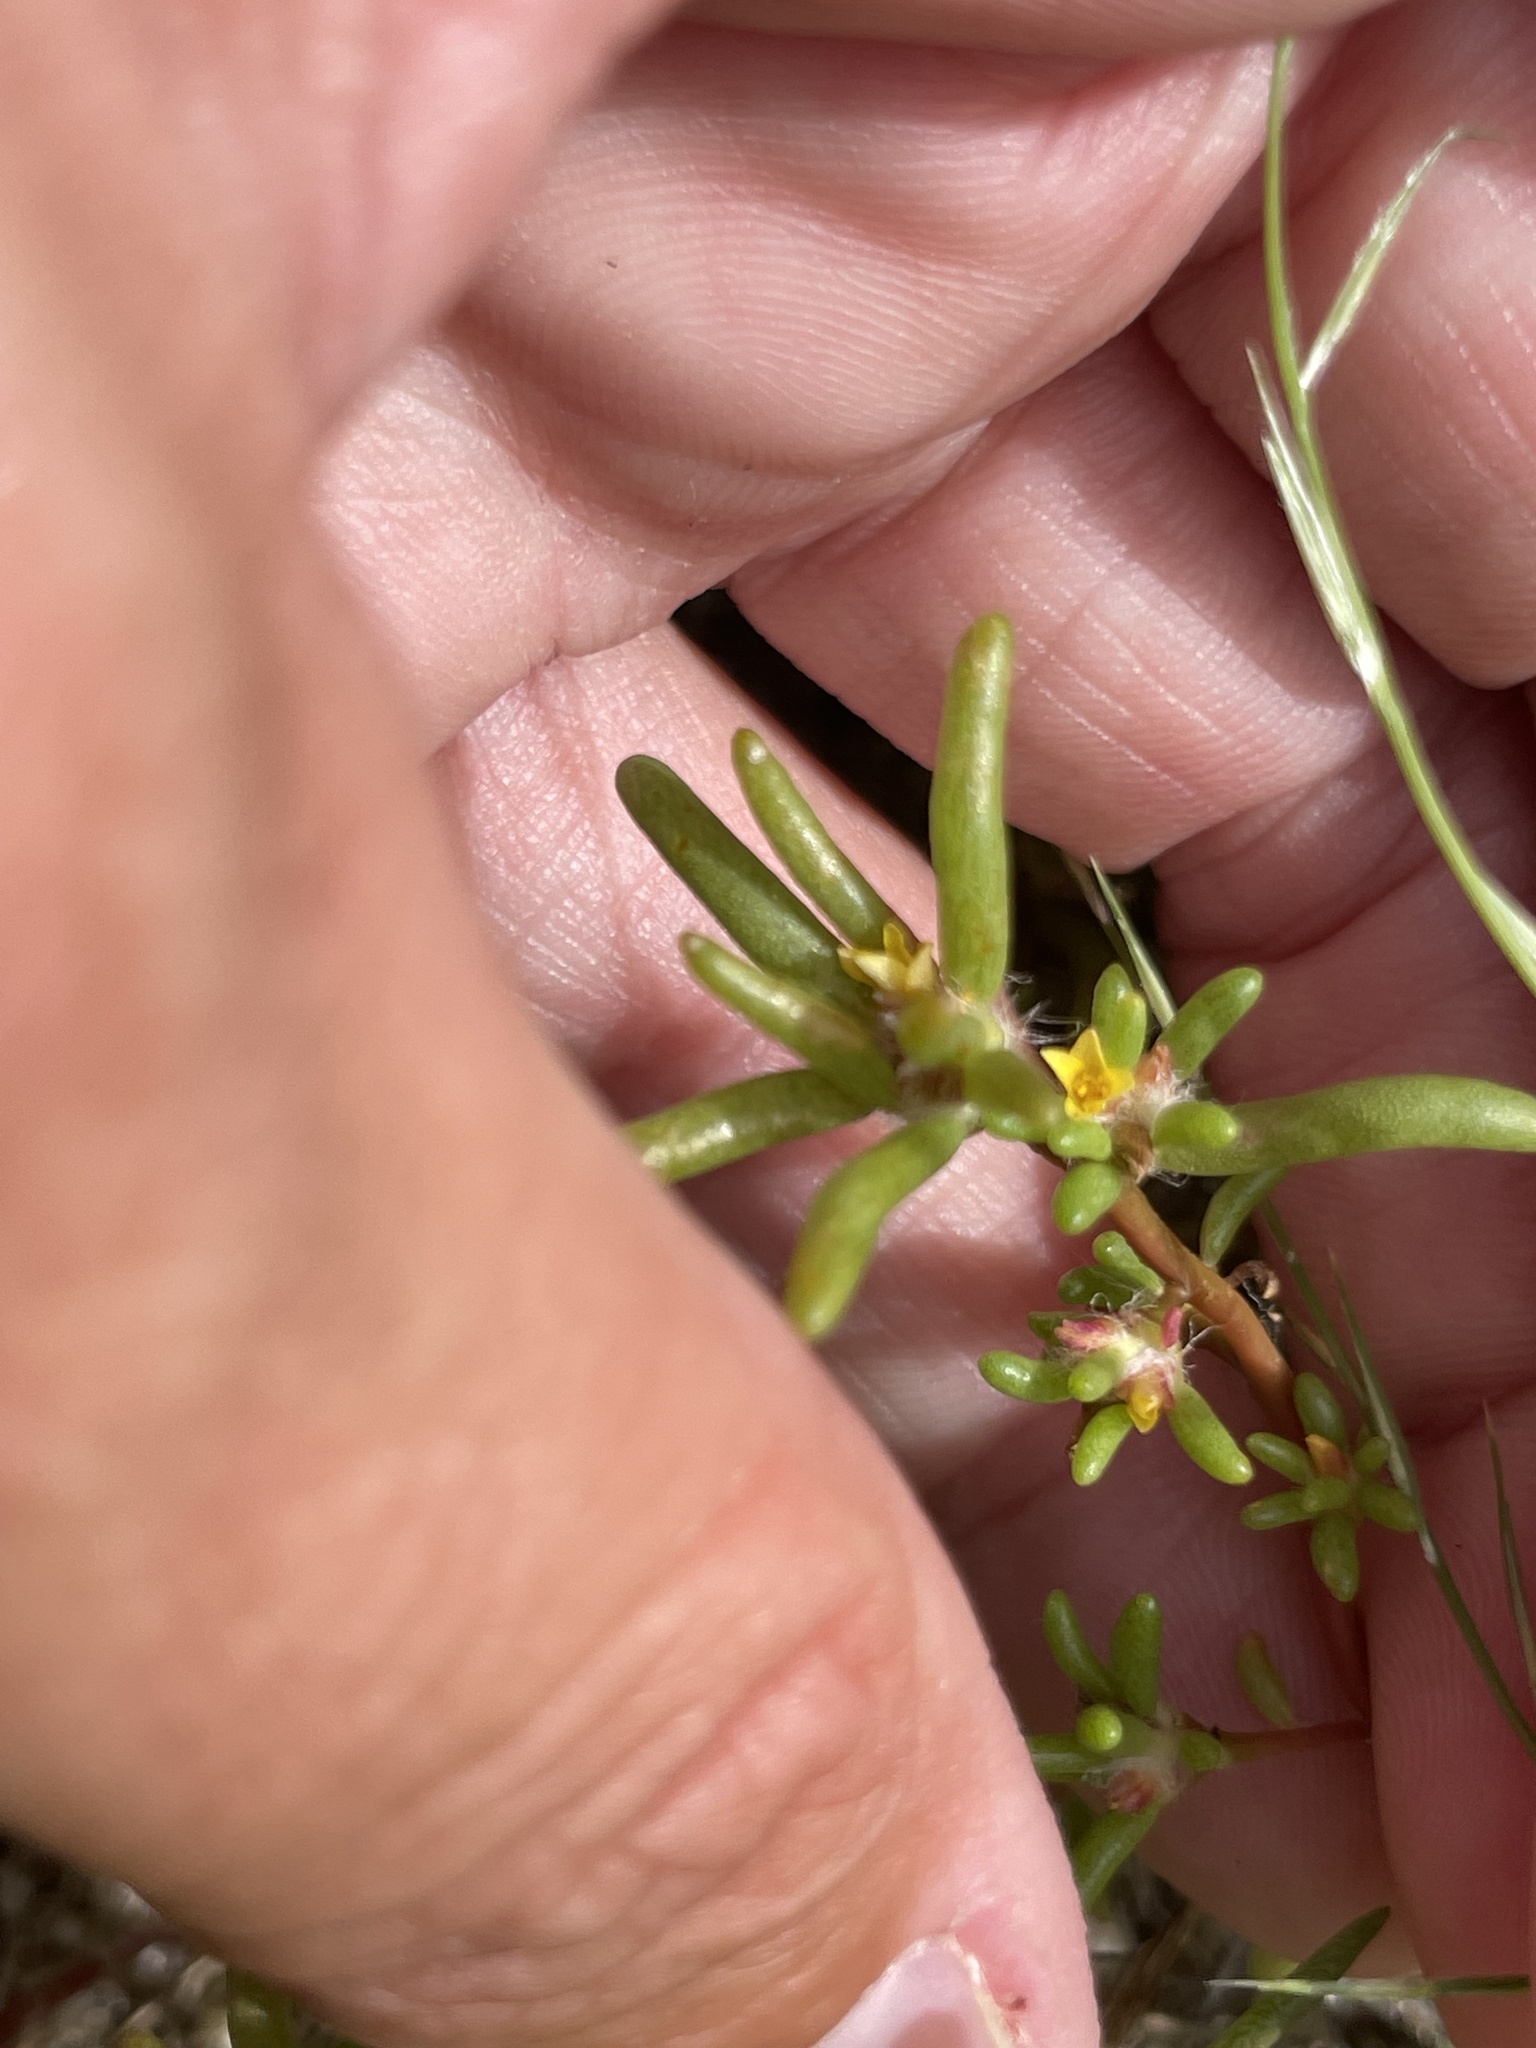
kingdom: Plantae
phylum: Tracheophyta
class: Magnoliopsida
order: Caryophyllales
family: Portulacaceae
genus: Portulaca
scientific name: Portulaca halimoides
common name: Silk cotton purslane
